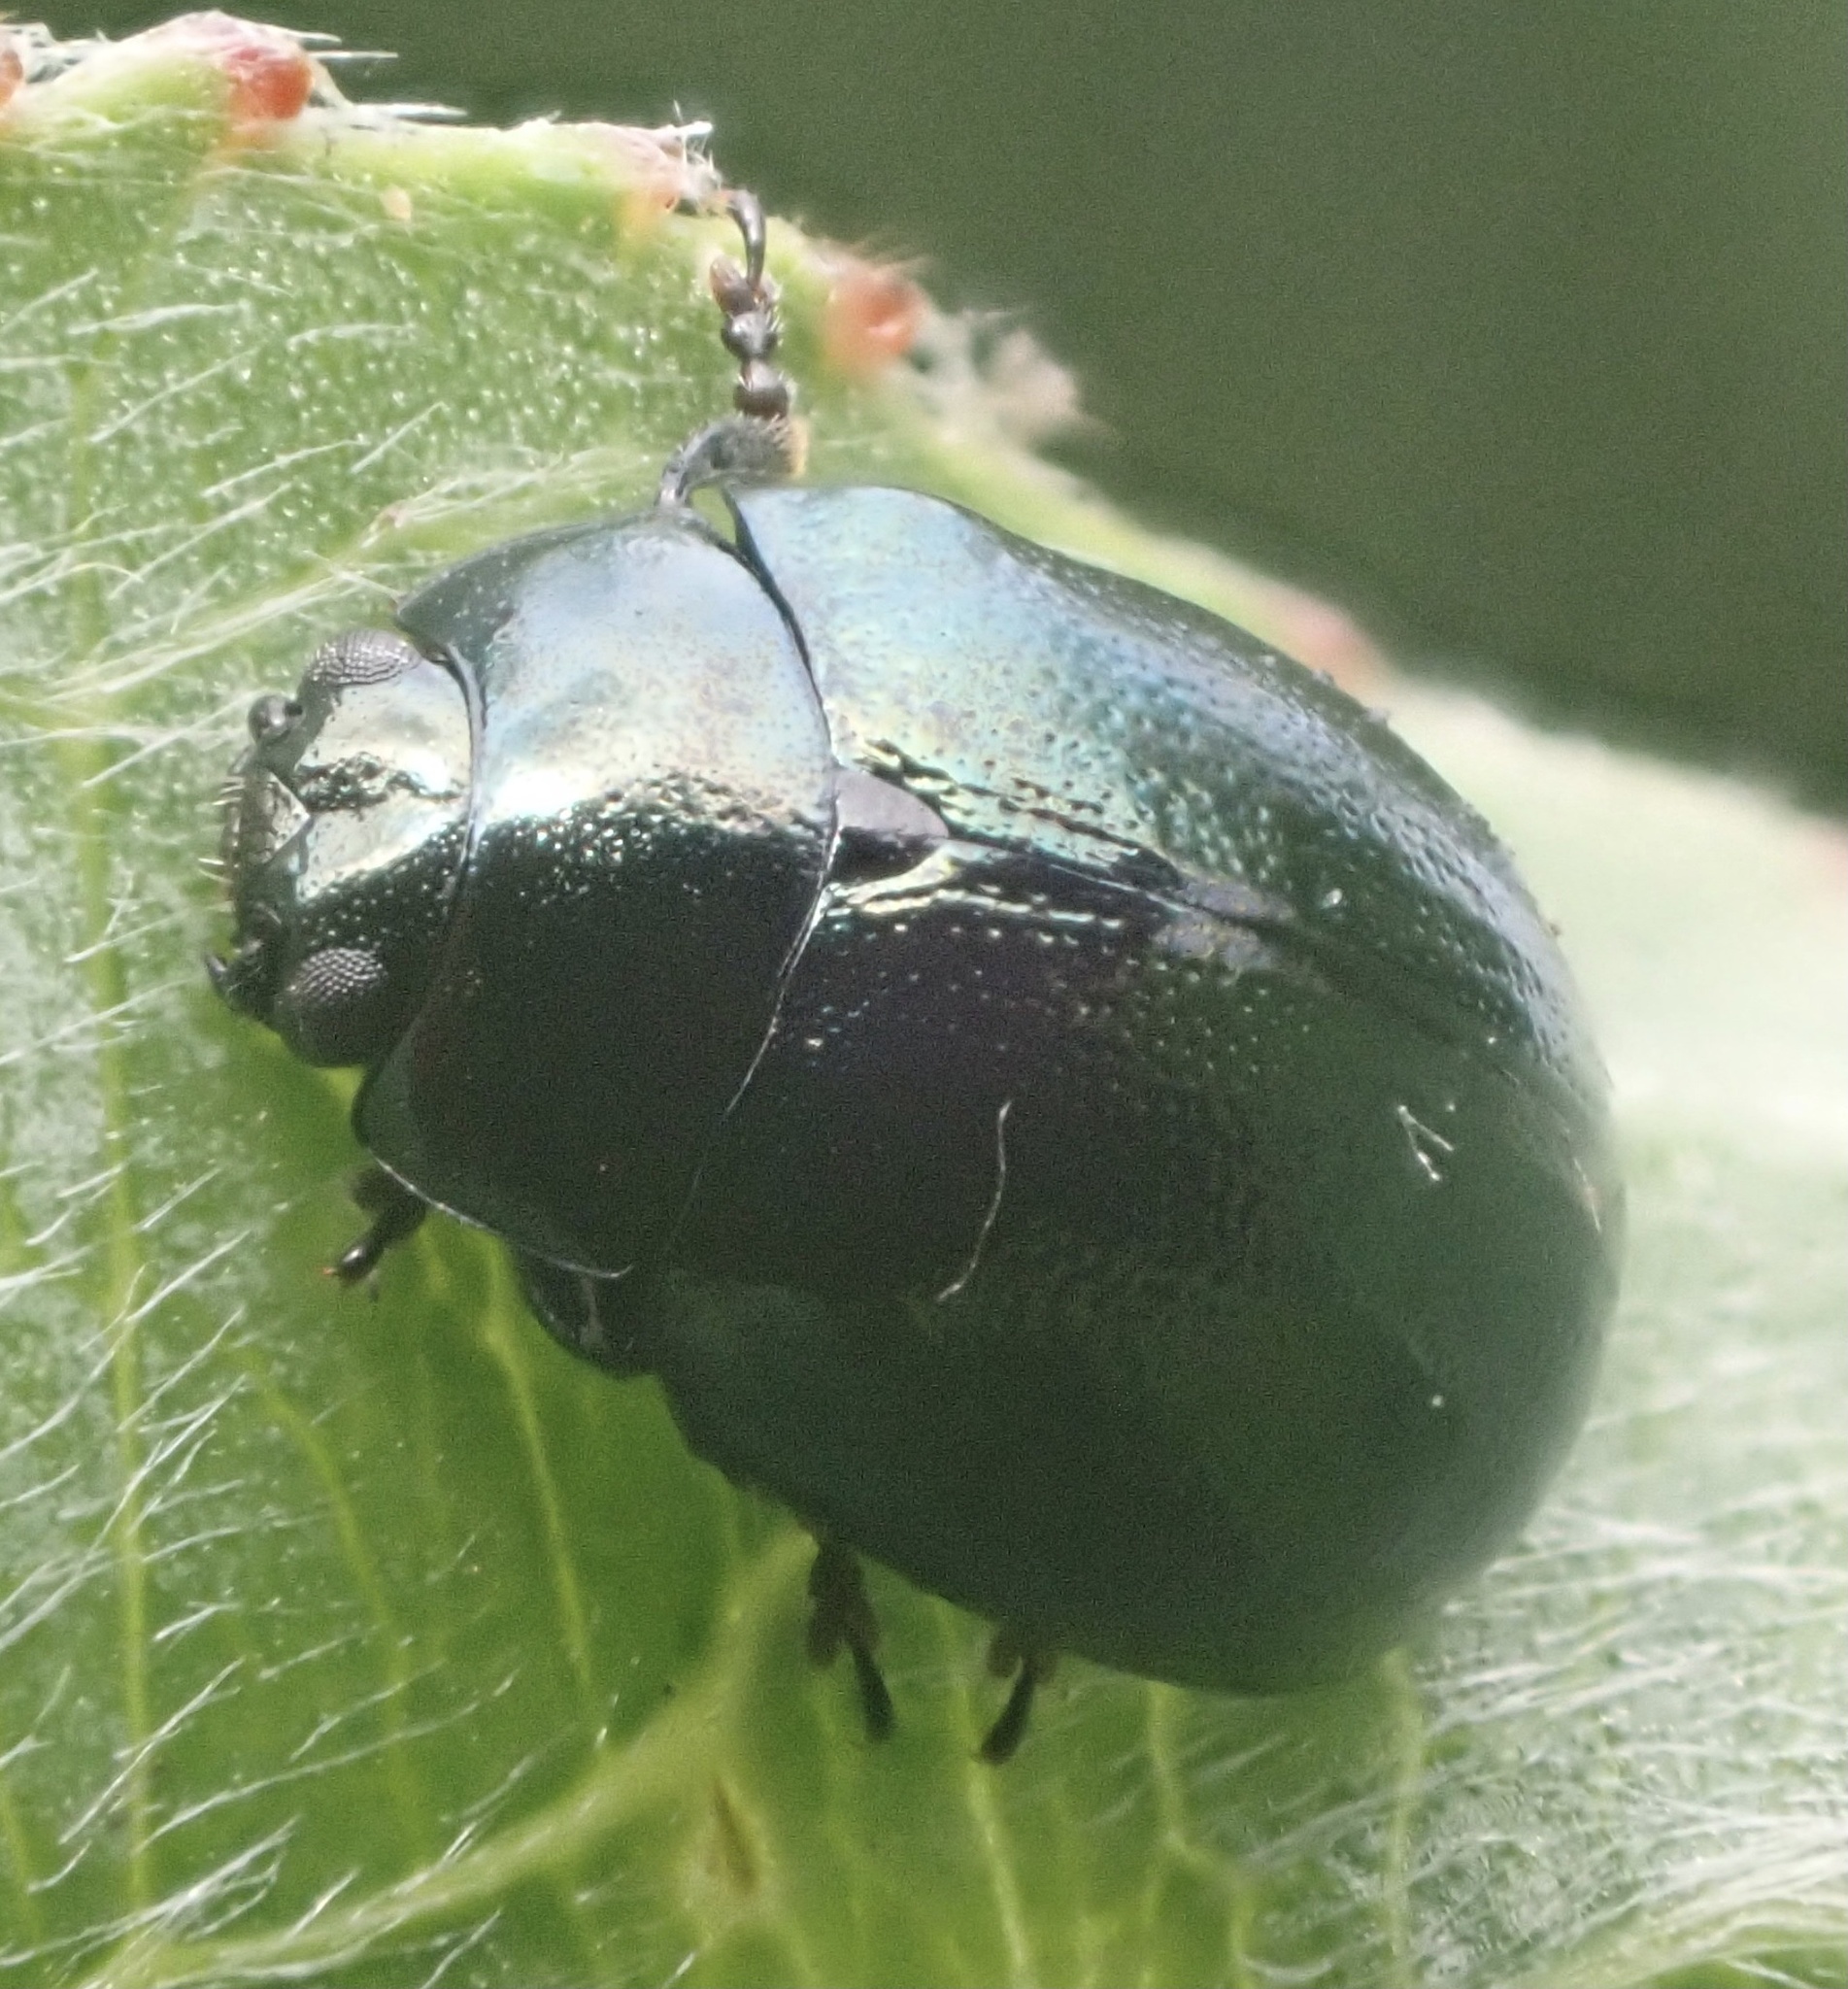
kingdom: Animalia
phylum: Arthropoda
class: Insecta
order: Coleoptera
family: Chrysomelidae
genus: Plagiodera
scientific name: Plagiodera versicolora
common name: Imported willow leaf beetle
